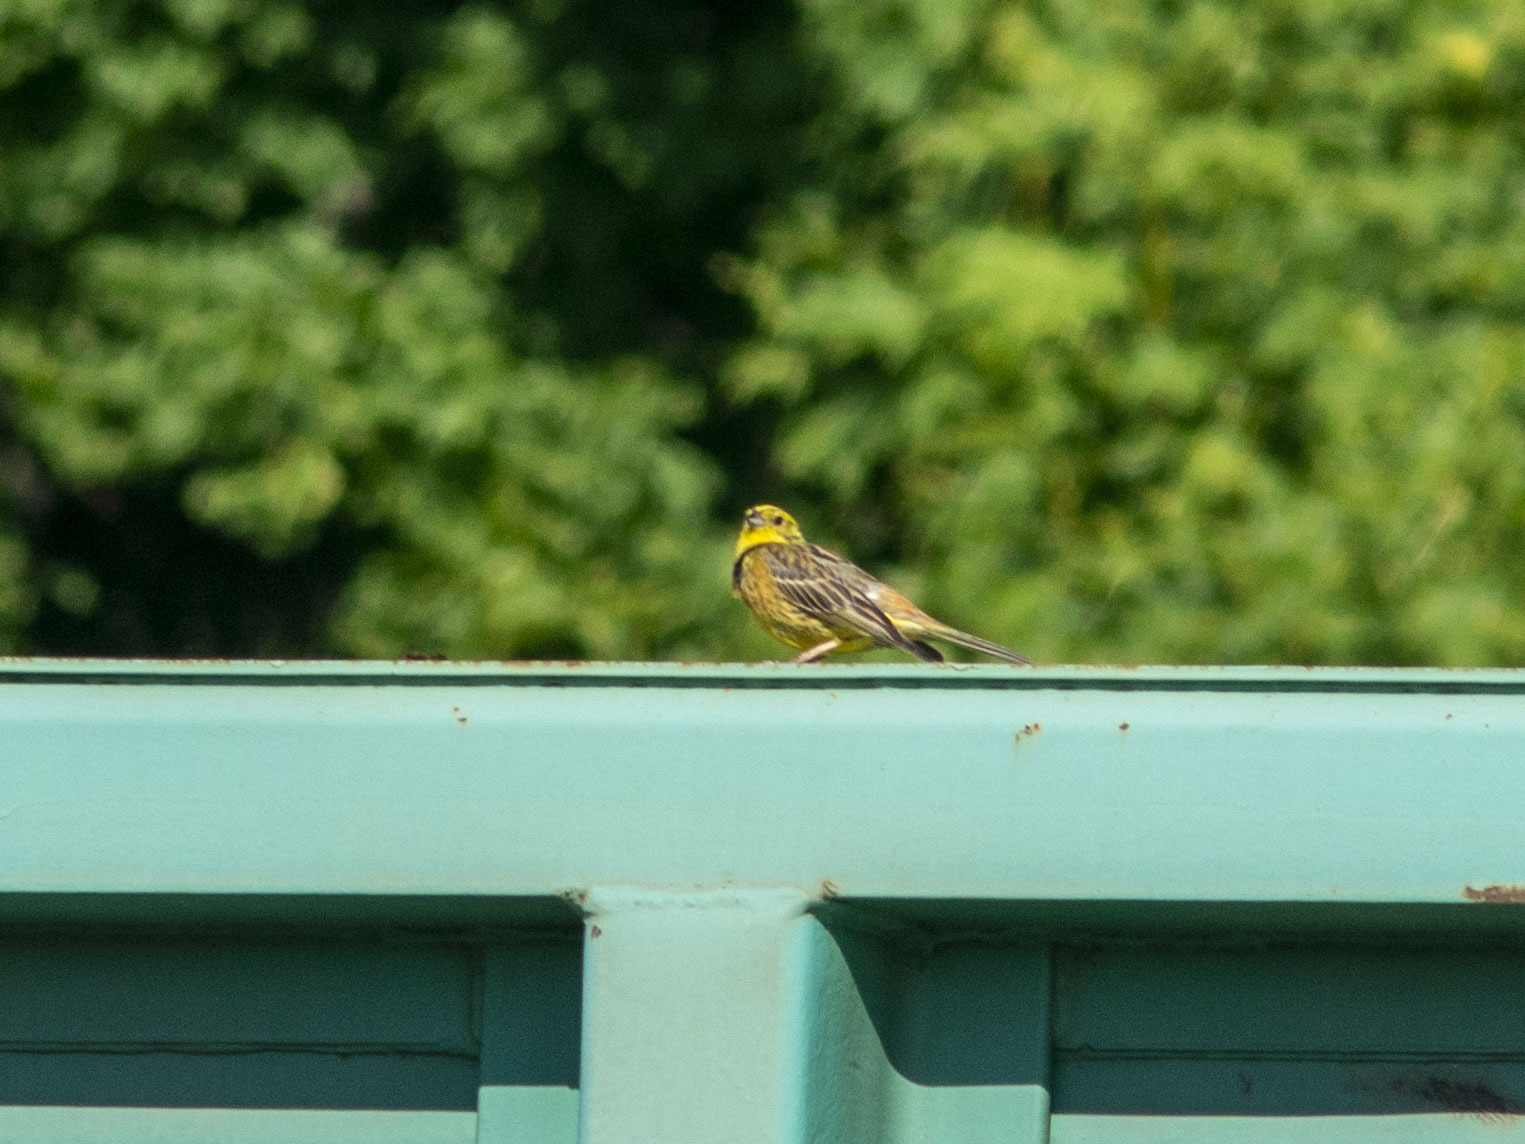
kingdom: Animalia
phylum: Chordata
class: Aves
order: Passeriformes
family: Emberizidae
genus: Emberiza
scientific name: Emberiza citrinella
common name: Yellowhammer
